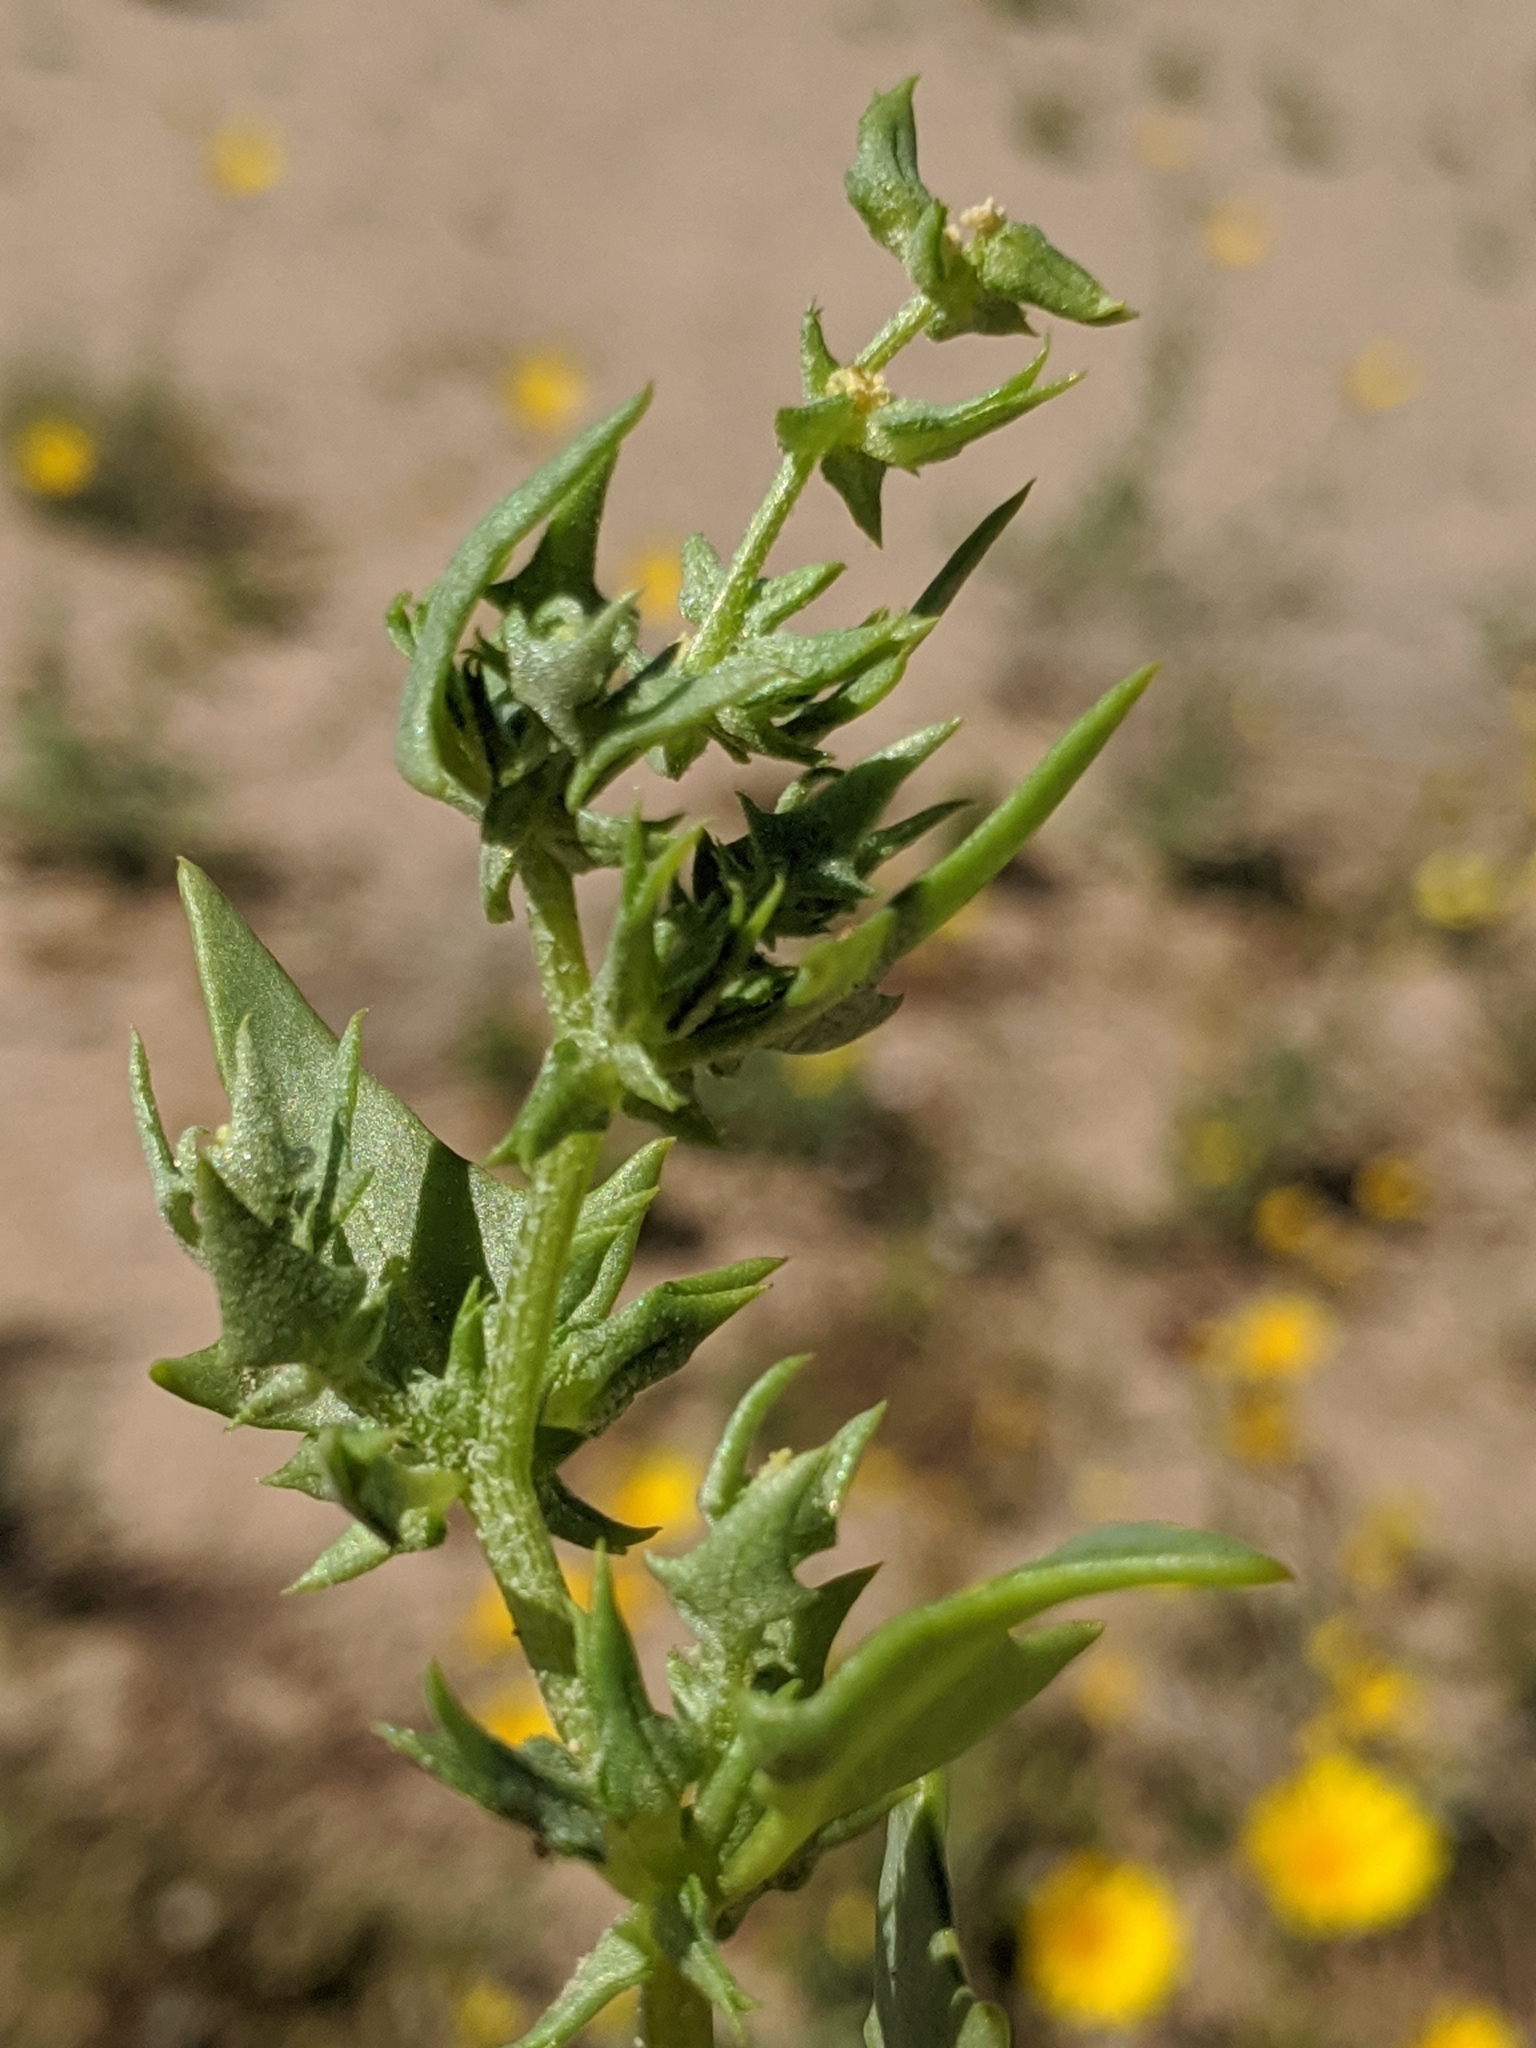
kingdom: Plantae
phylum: Tracheophyta
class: Magnoliopsida
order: Caryophyllales
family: Amaranthaceae
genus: Stutzia
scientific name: Stutzia covillei
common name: Coville's orach
